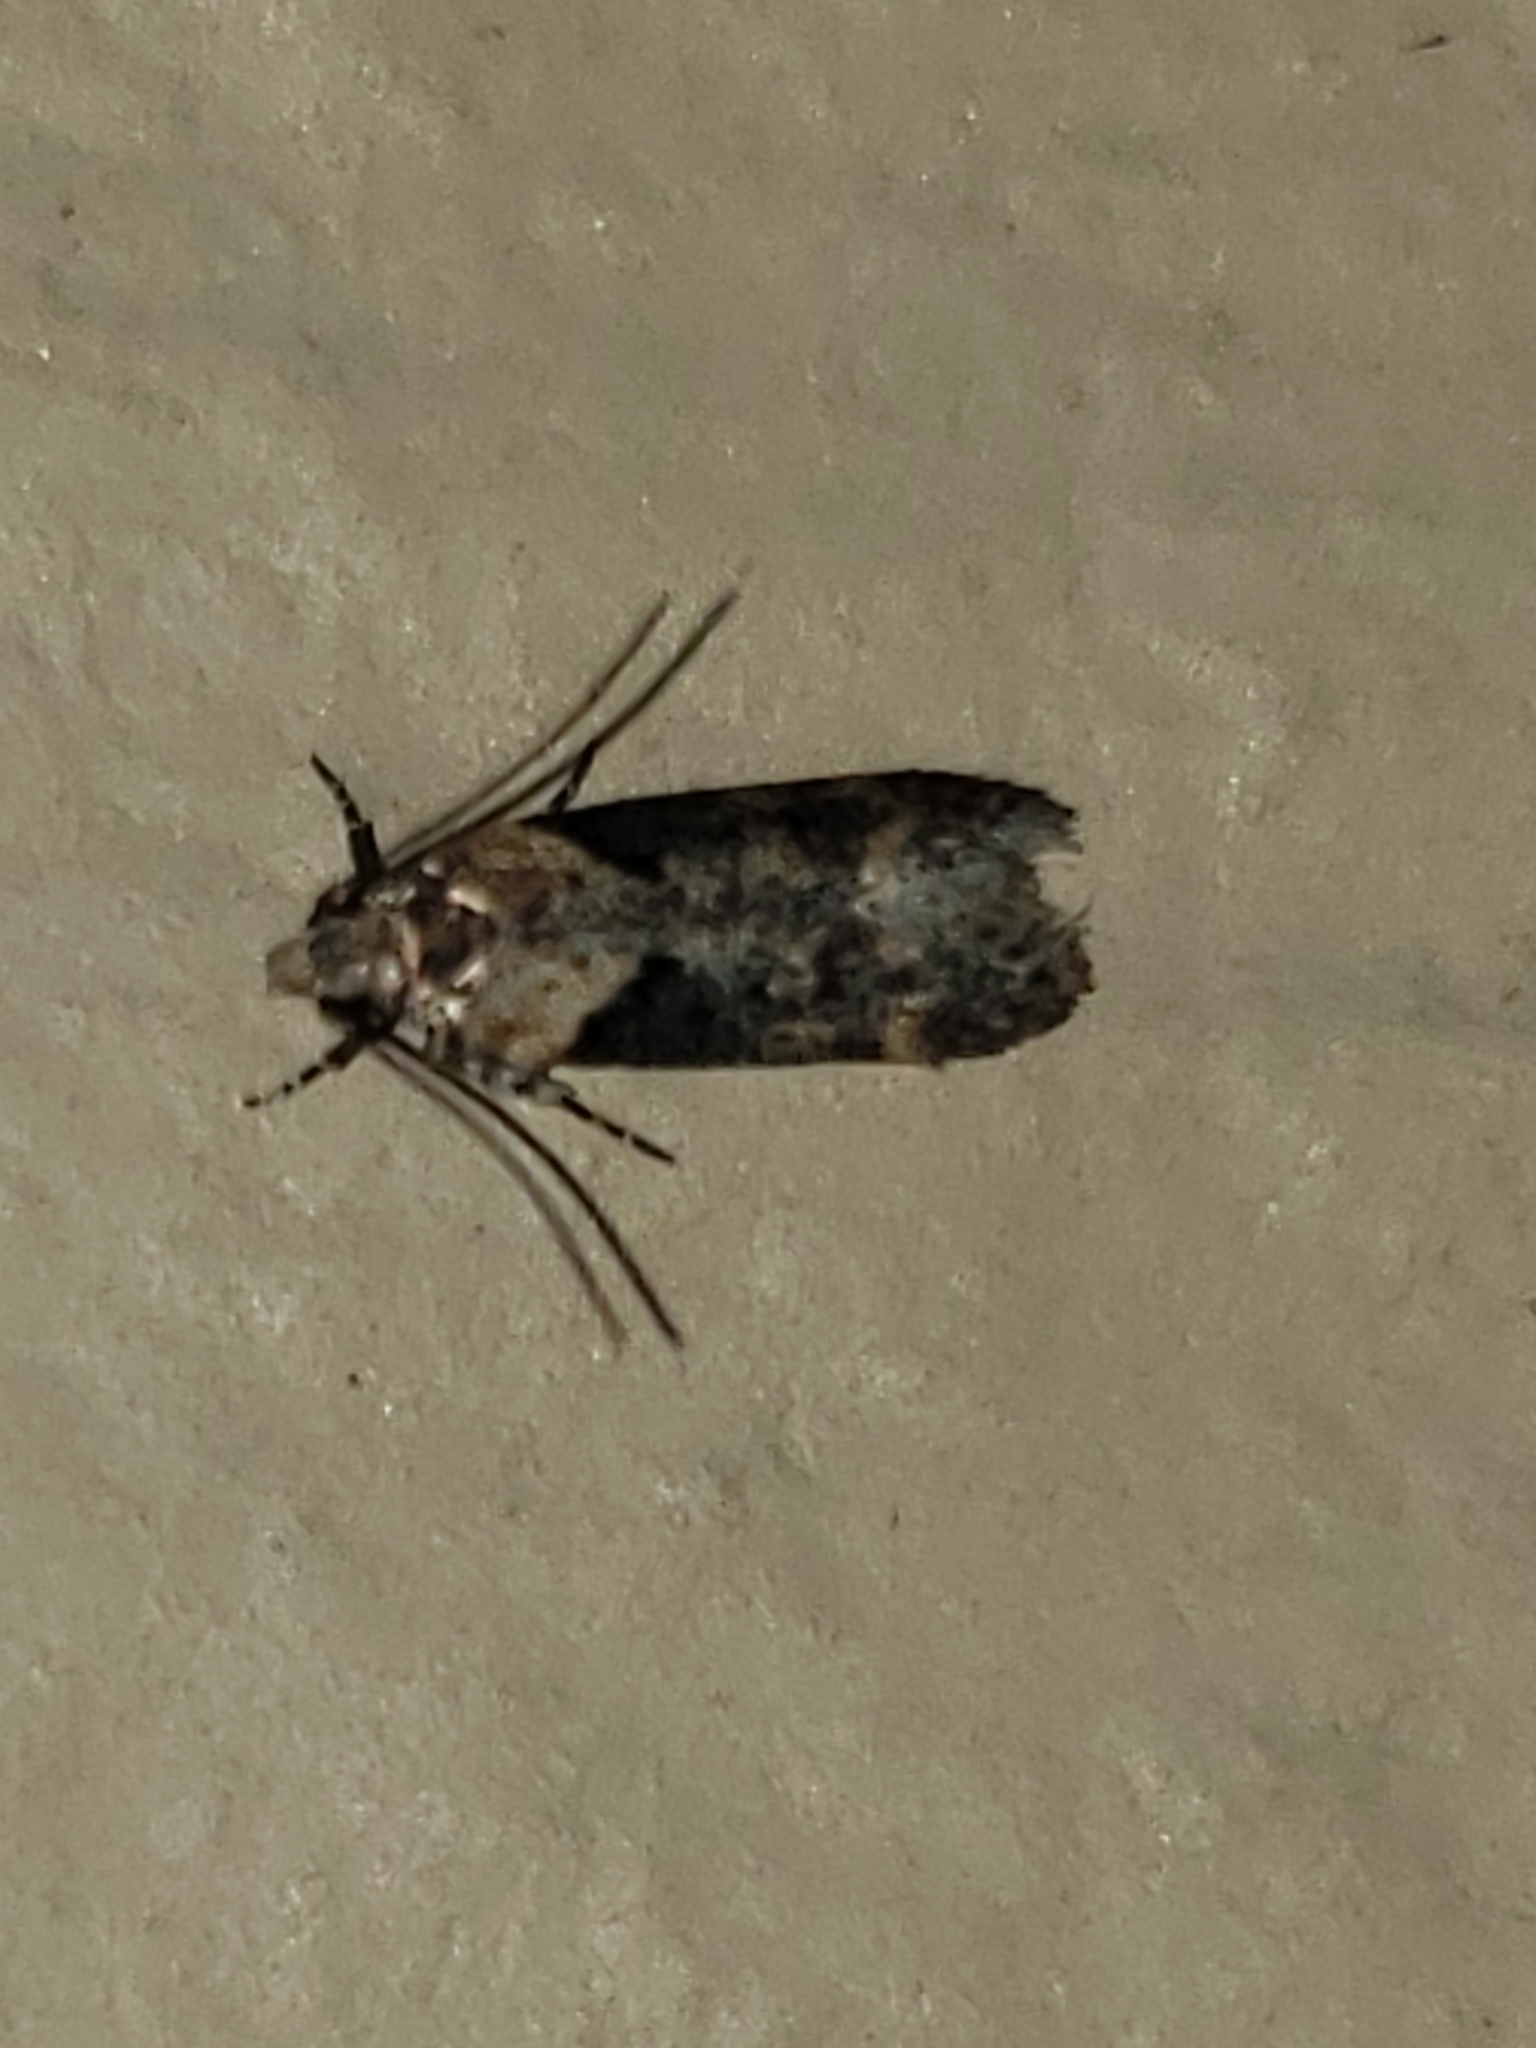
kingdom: Animalia
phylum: Arthropoda
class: Insecta
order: Lepidoptera
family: Gelechiidae
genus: Chionodes
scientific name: Chionodes mediofuscella
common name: Black-smudged chionodes moth
